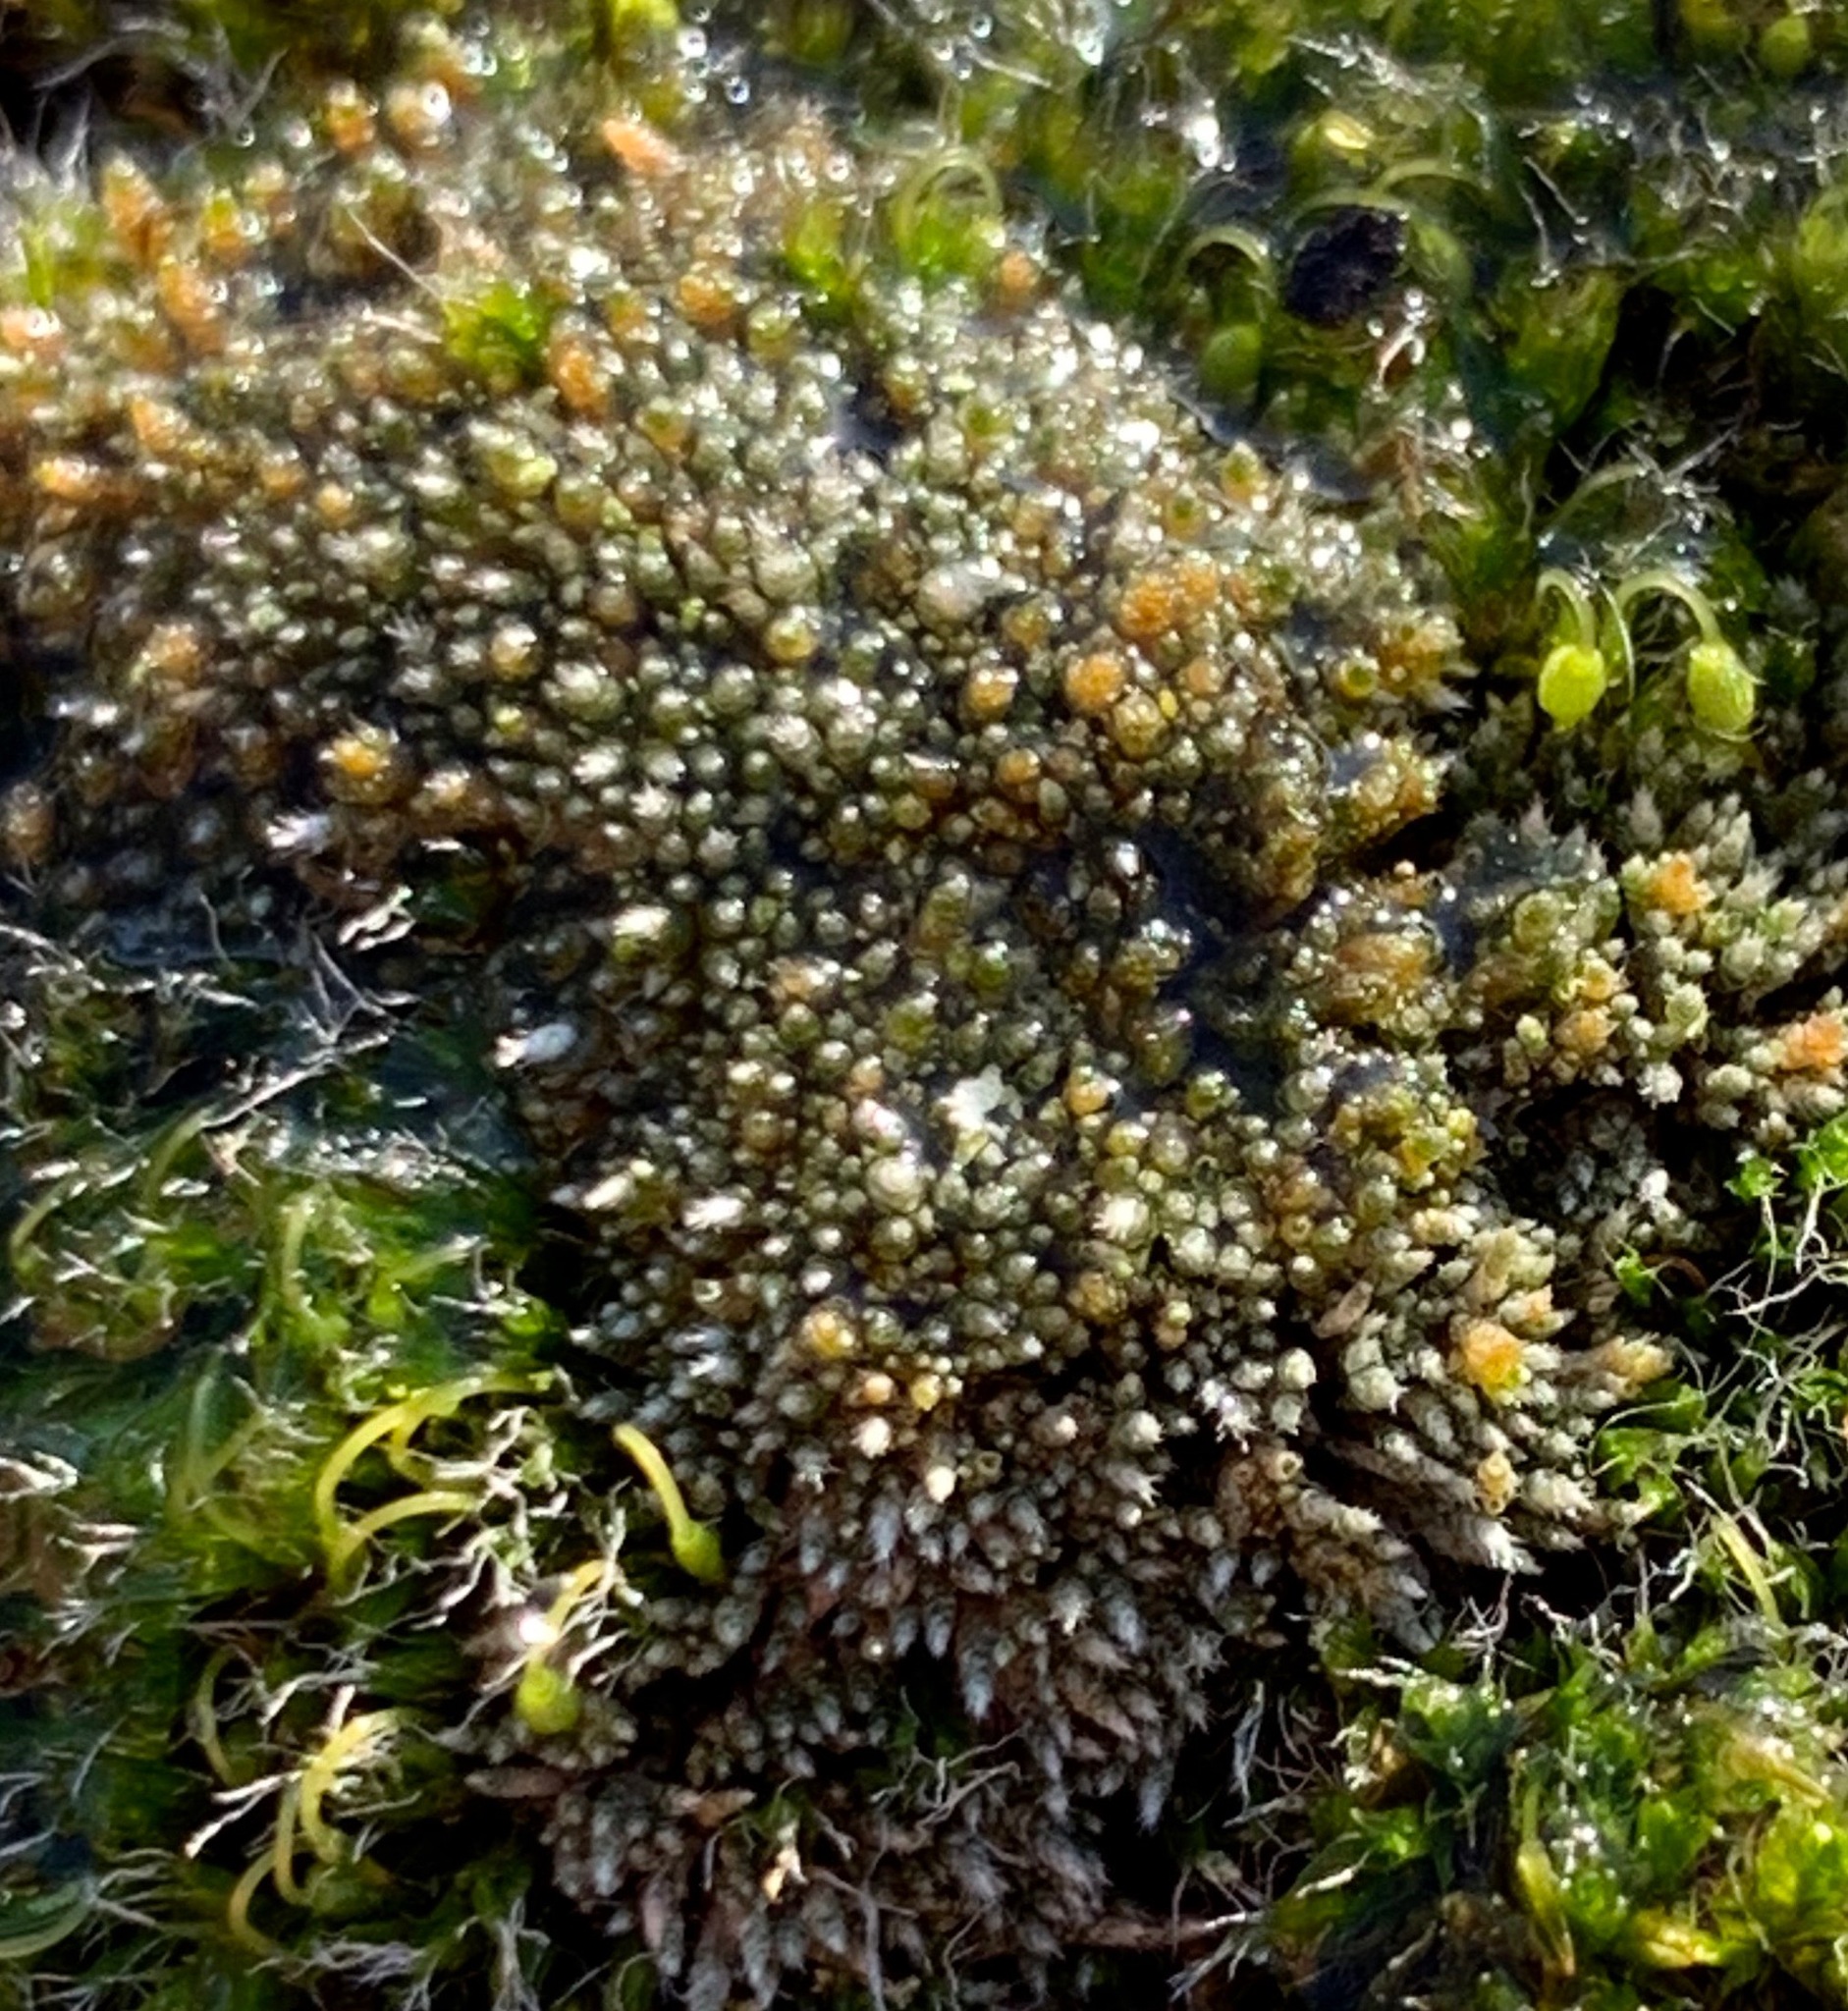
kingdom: Plantae
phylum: Bryophyta
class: Bryopsida
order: Bryales
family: Bryaceae
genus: Bryum
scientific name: Bryum argenteum
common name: Silver-moss
